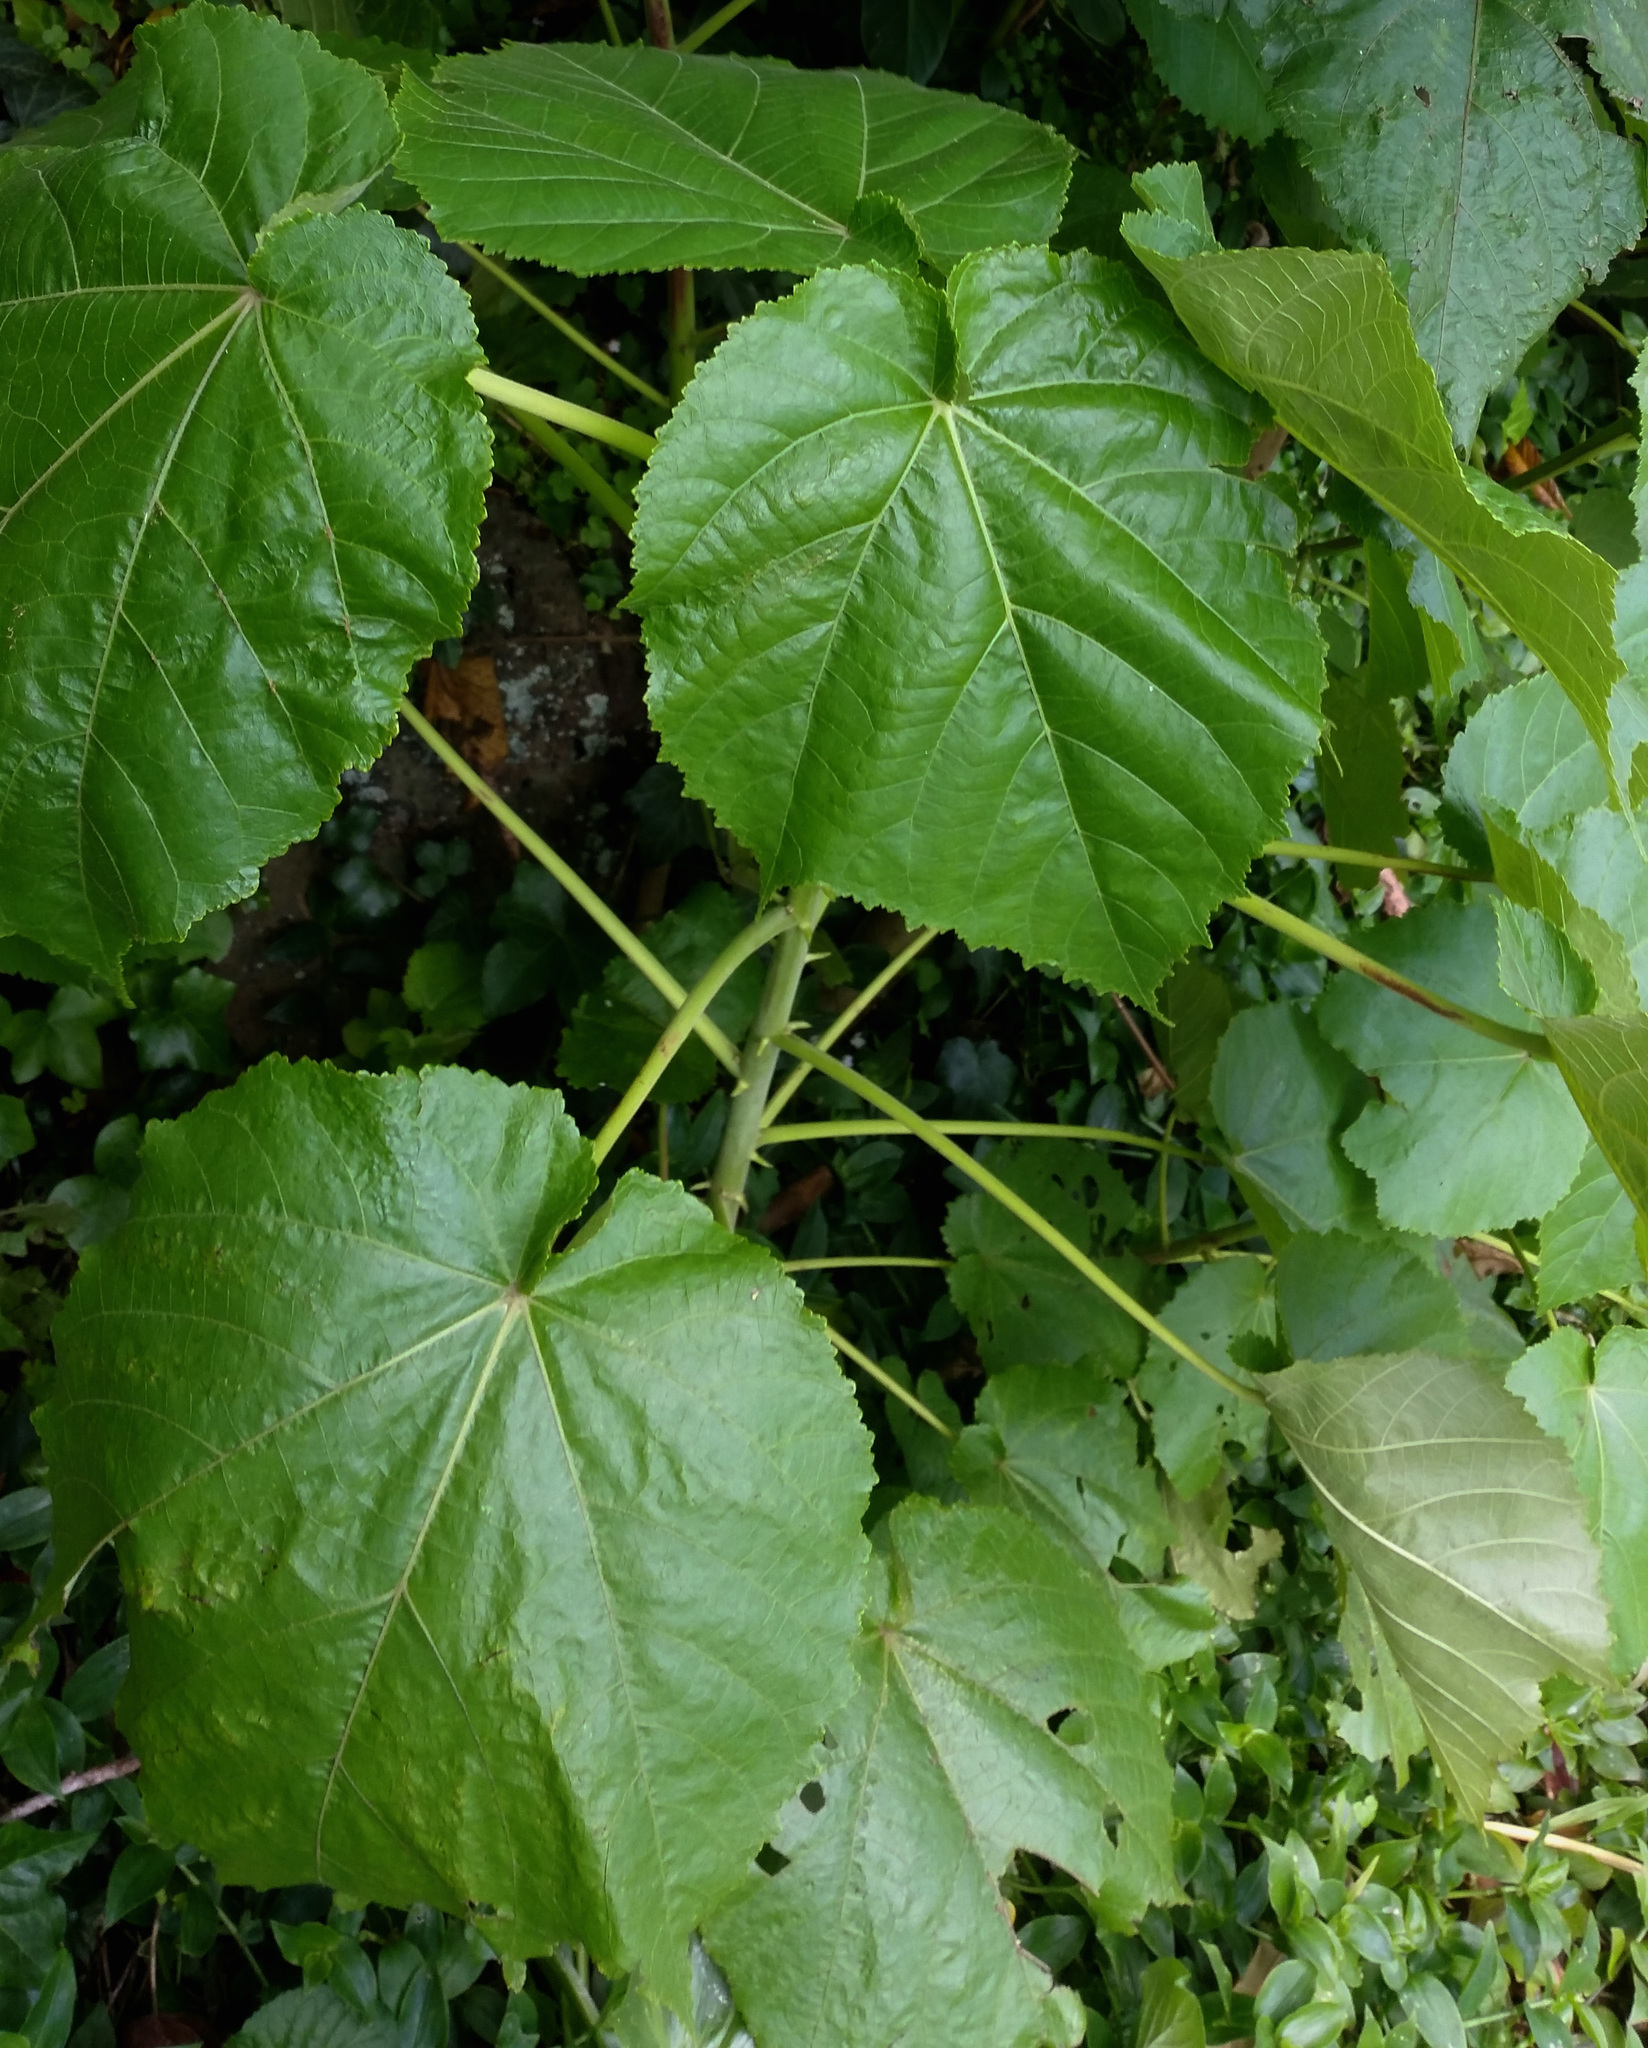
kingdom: Plantae
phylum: Tracheophyta
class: Magnoliopsida
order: Malvales
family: Malvaceae
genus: Entelea
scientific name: Entelea arborescens
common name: New zealand-mulberry
